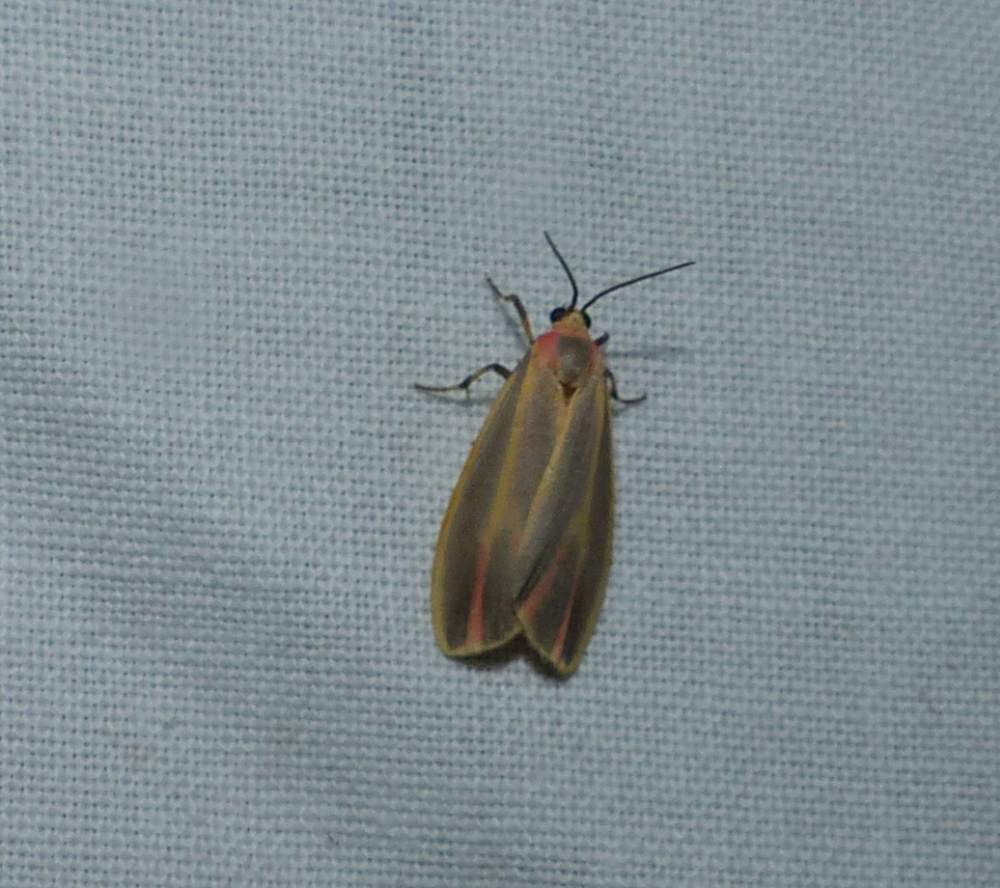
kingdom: Animalia
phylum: Arthropoda
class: Insecta
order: Lepidoptera
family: Erebidae
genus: Hypoprepia
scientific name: Hypoprepia fucosa
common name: Painted lichen moth
